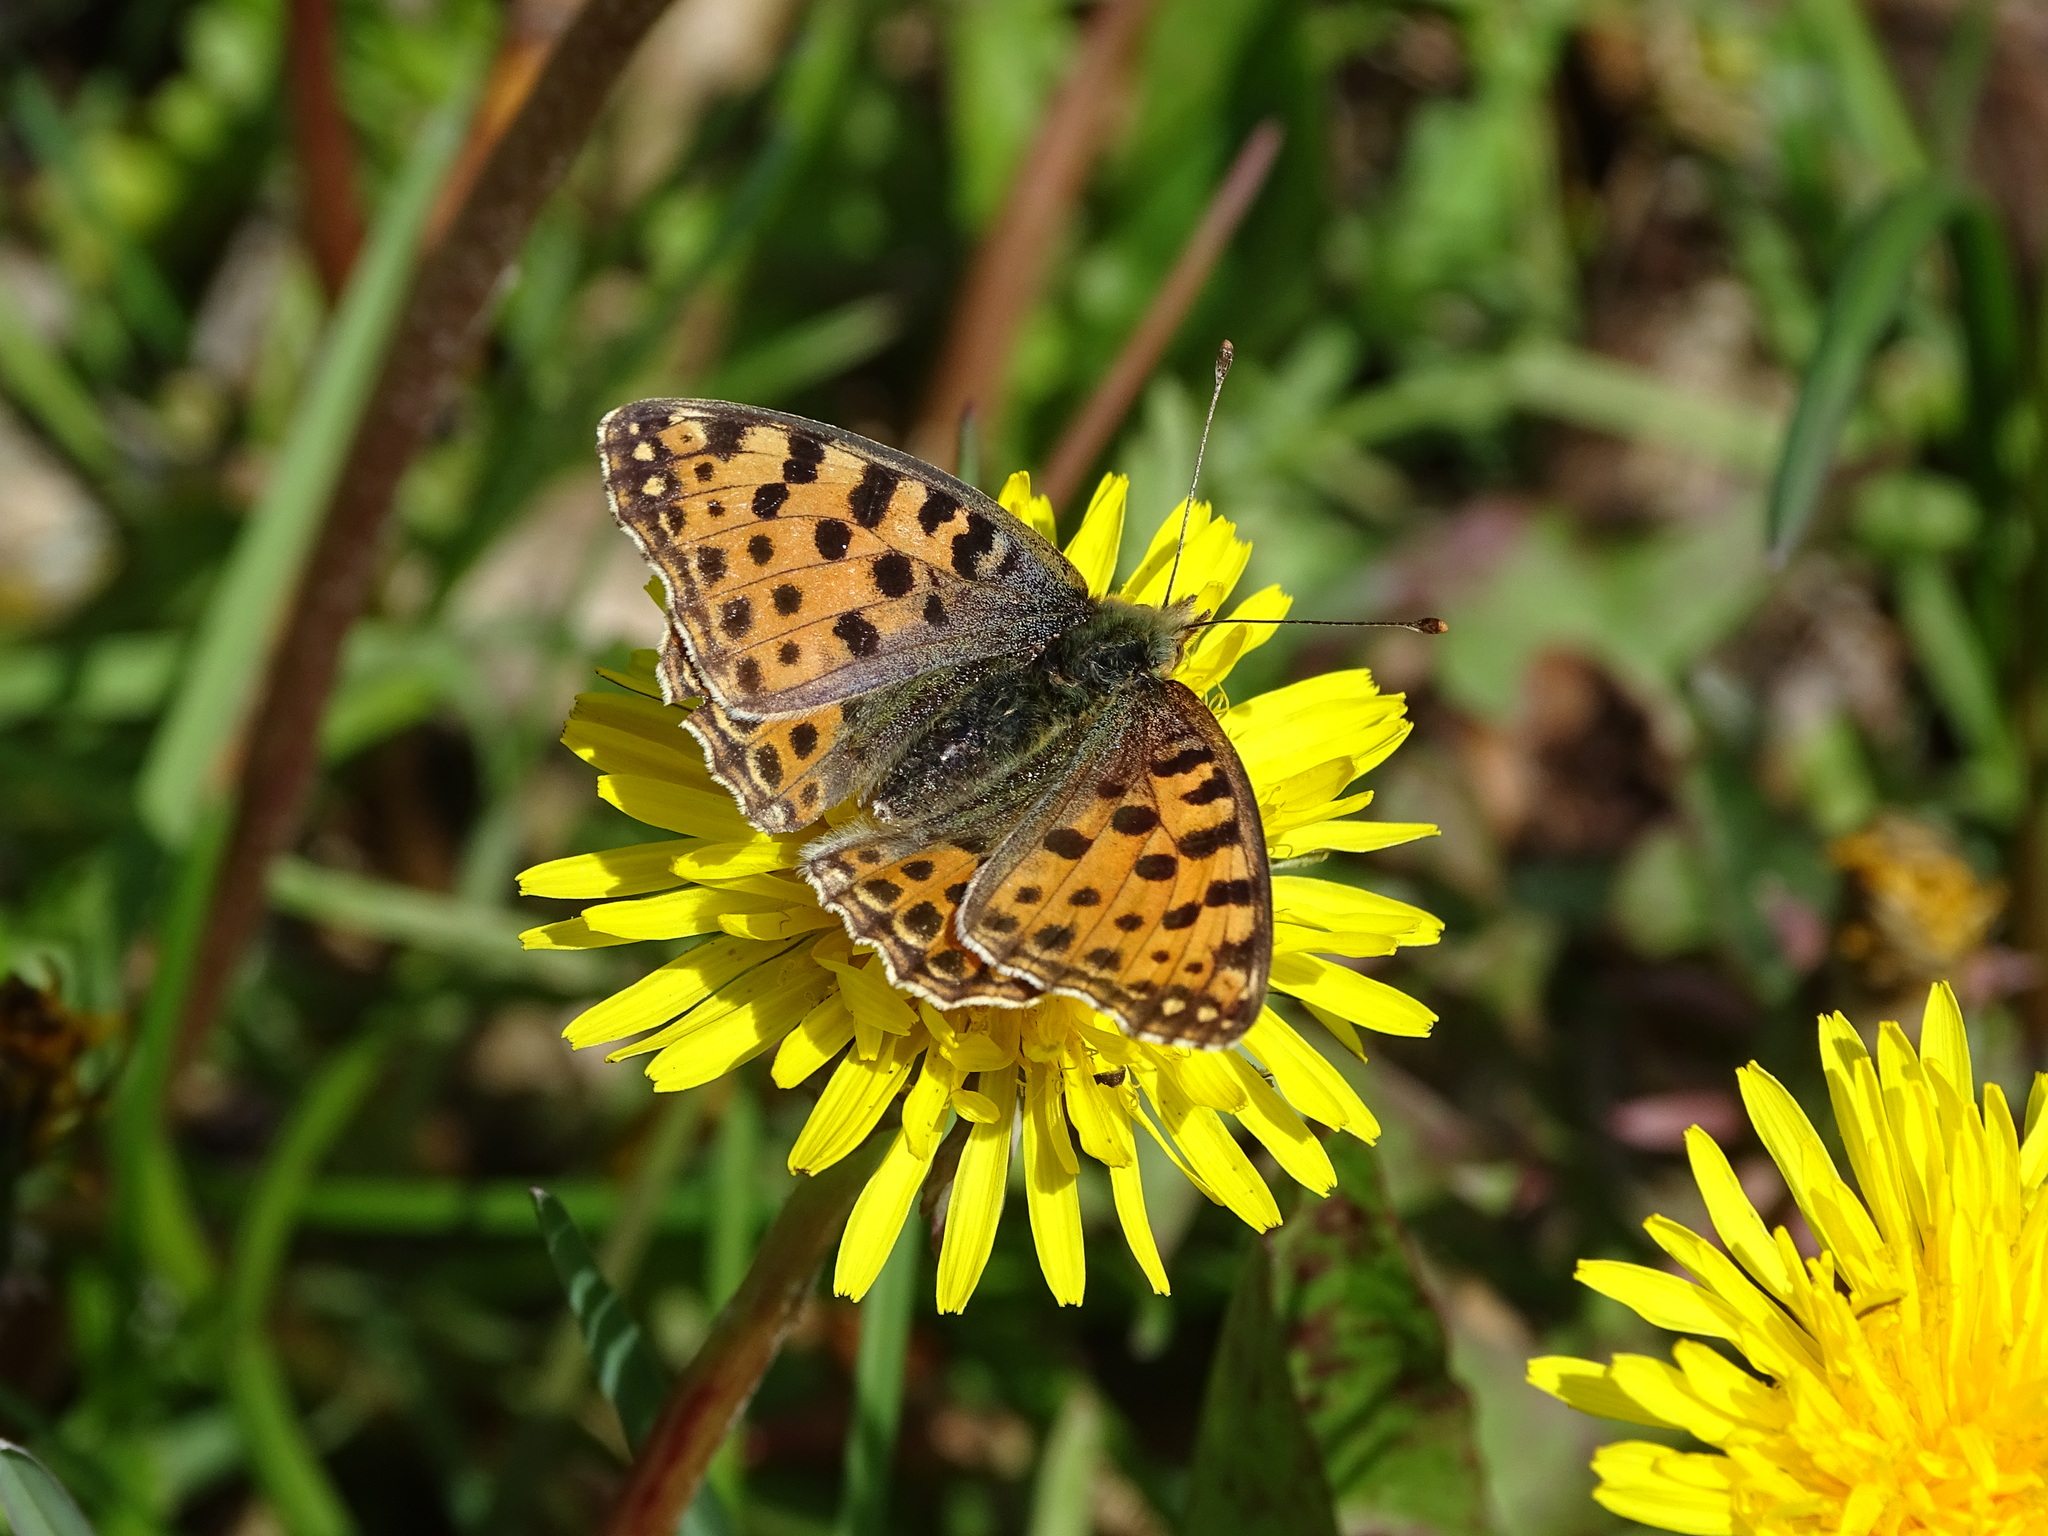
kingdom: Animalia
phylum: Arthropoda
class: Insecta
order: Lepidoptera
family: Nymphalidae
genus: Issoria
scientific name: Issoria lathonia
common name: Queen of spain fritillary
